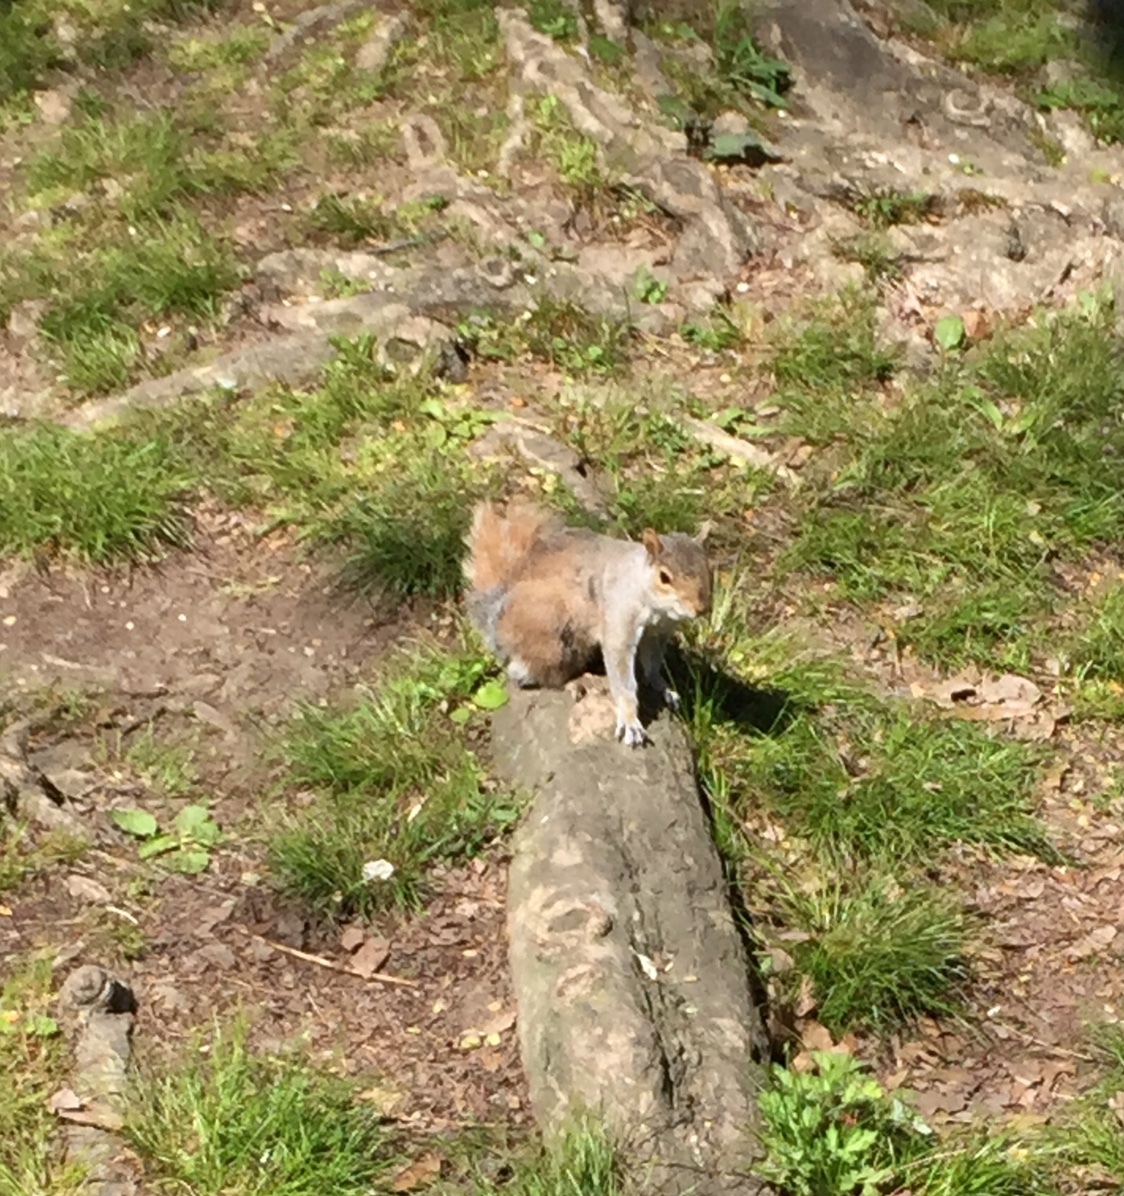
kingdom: Animalia
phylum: Chordata
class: Mammalia
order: Rodentia
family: Sciuridae
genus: Sciurus
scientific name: Sciurus carolinensis
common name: Eastern gray squirrel
